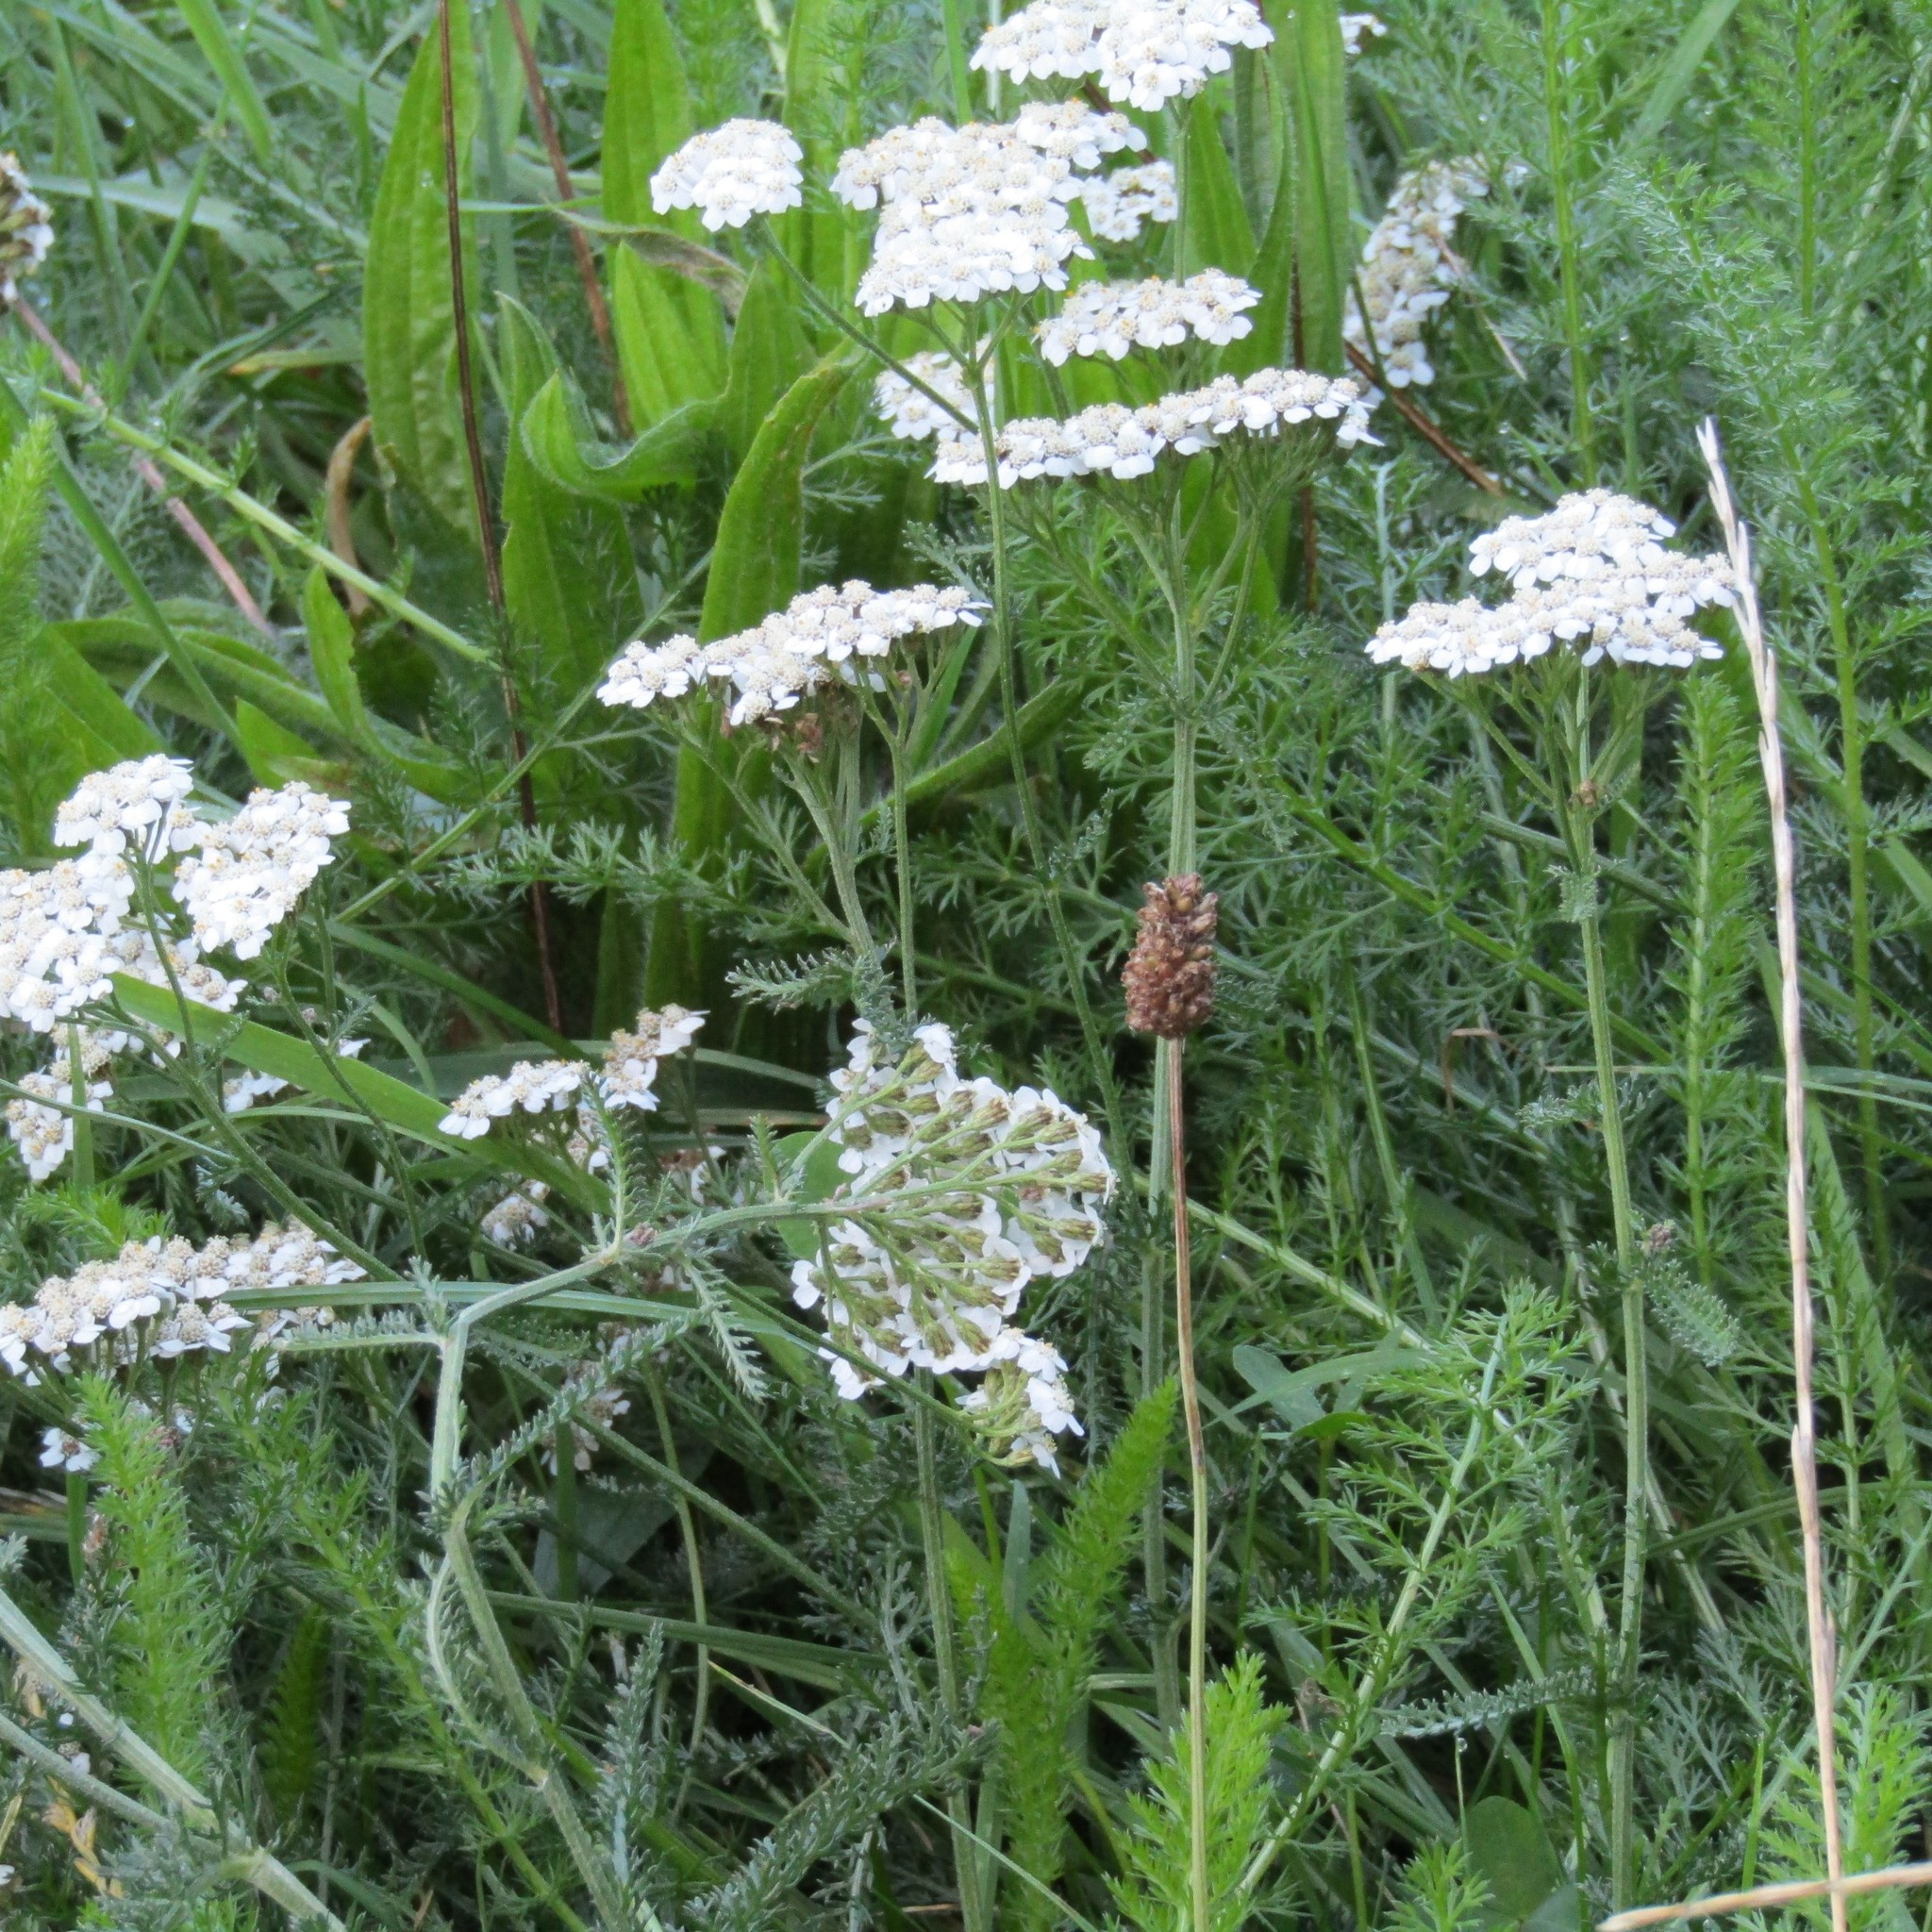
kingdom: Plantae
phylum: Tracheophyta
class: Magnoliopsida
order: Asterales
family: Asteraceae
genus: Achillea
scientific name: Achillea millefolium
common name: Yarrow
